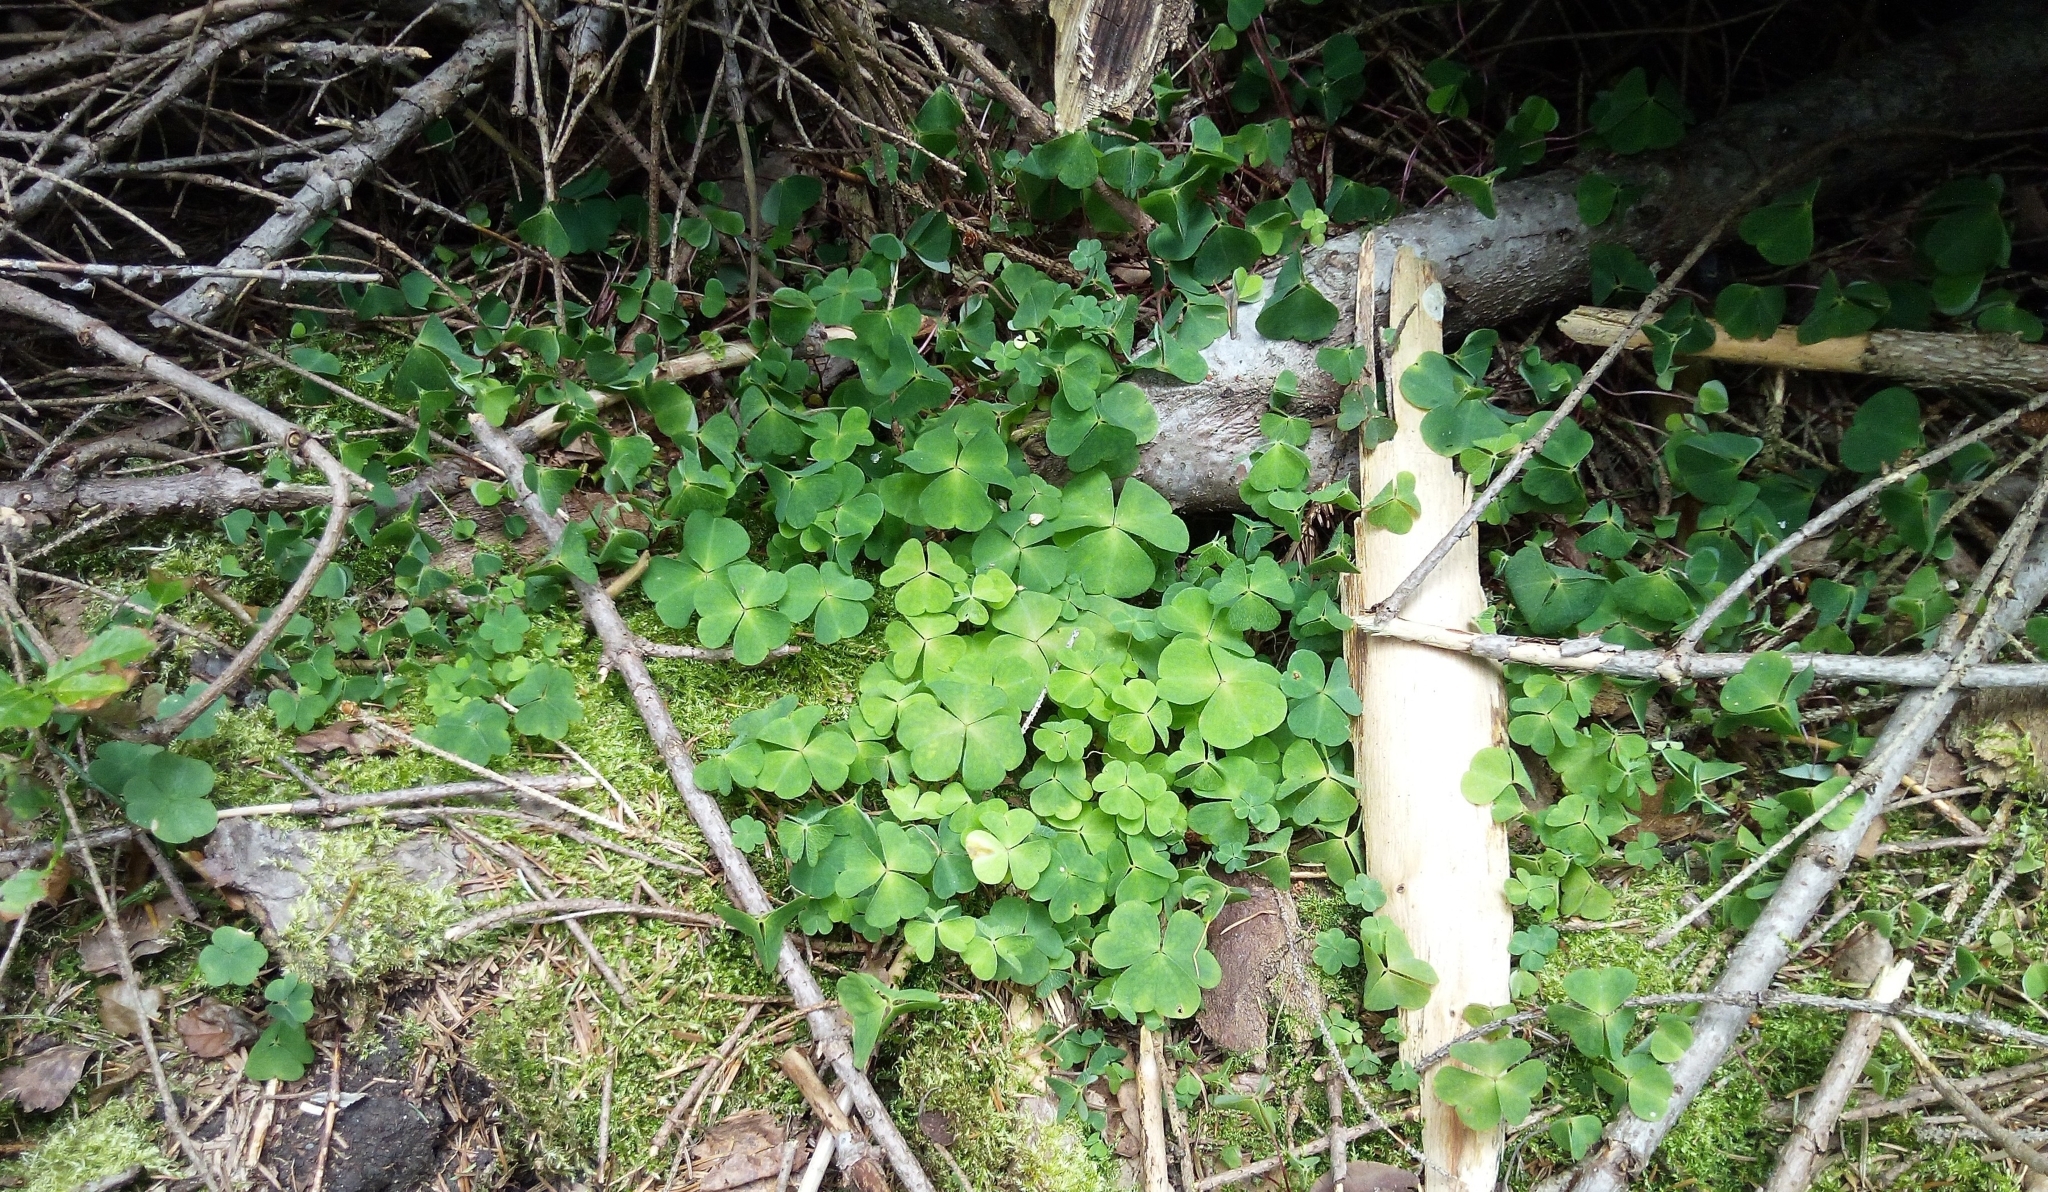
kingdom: Plantae
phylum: Tracheophyta
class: Magnoliopsida
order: Oxalidales
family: Oxalidaceae
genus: Oxalis
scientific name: Oxalis acetosella
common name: Wood-sorrel
